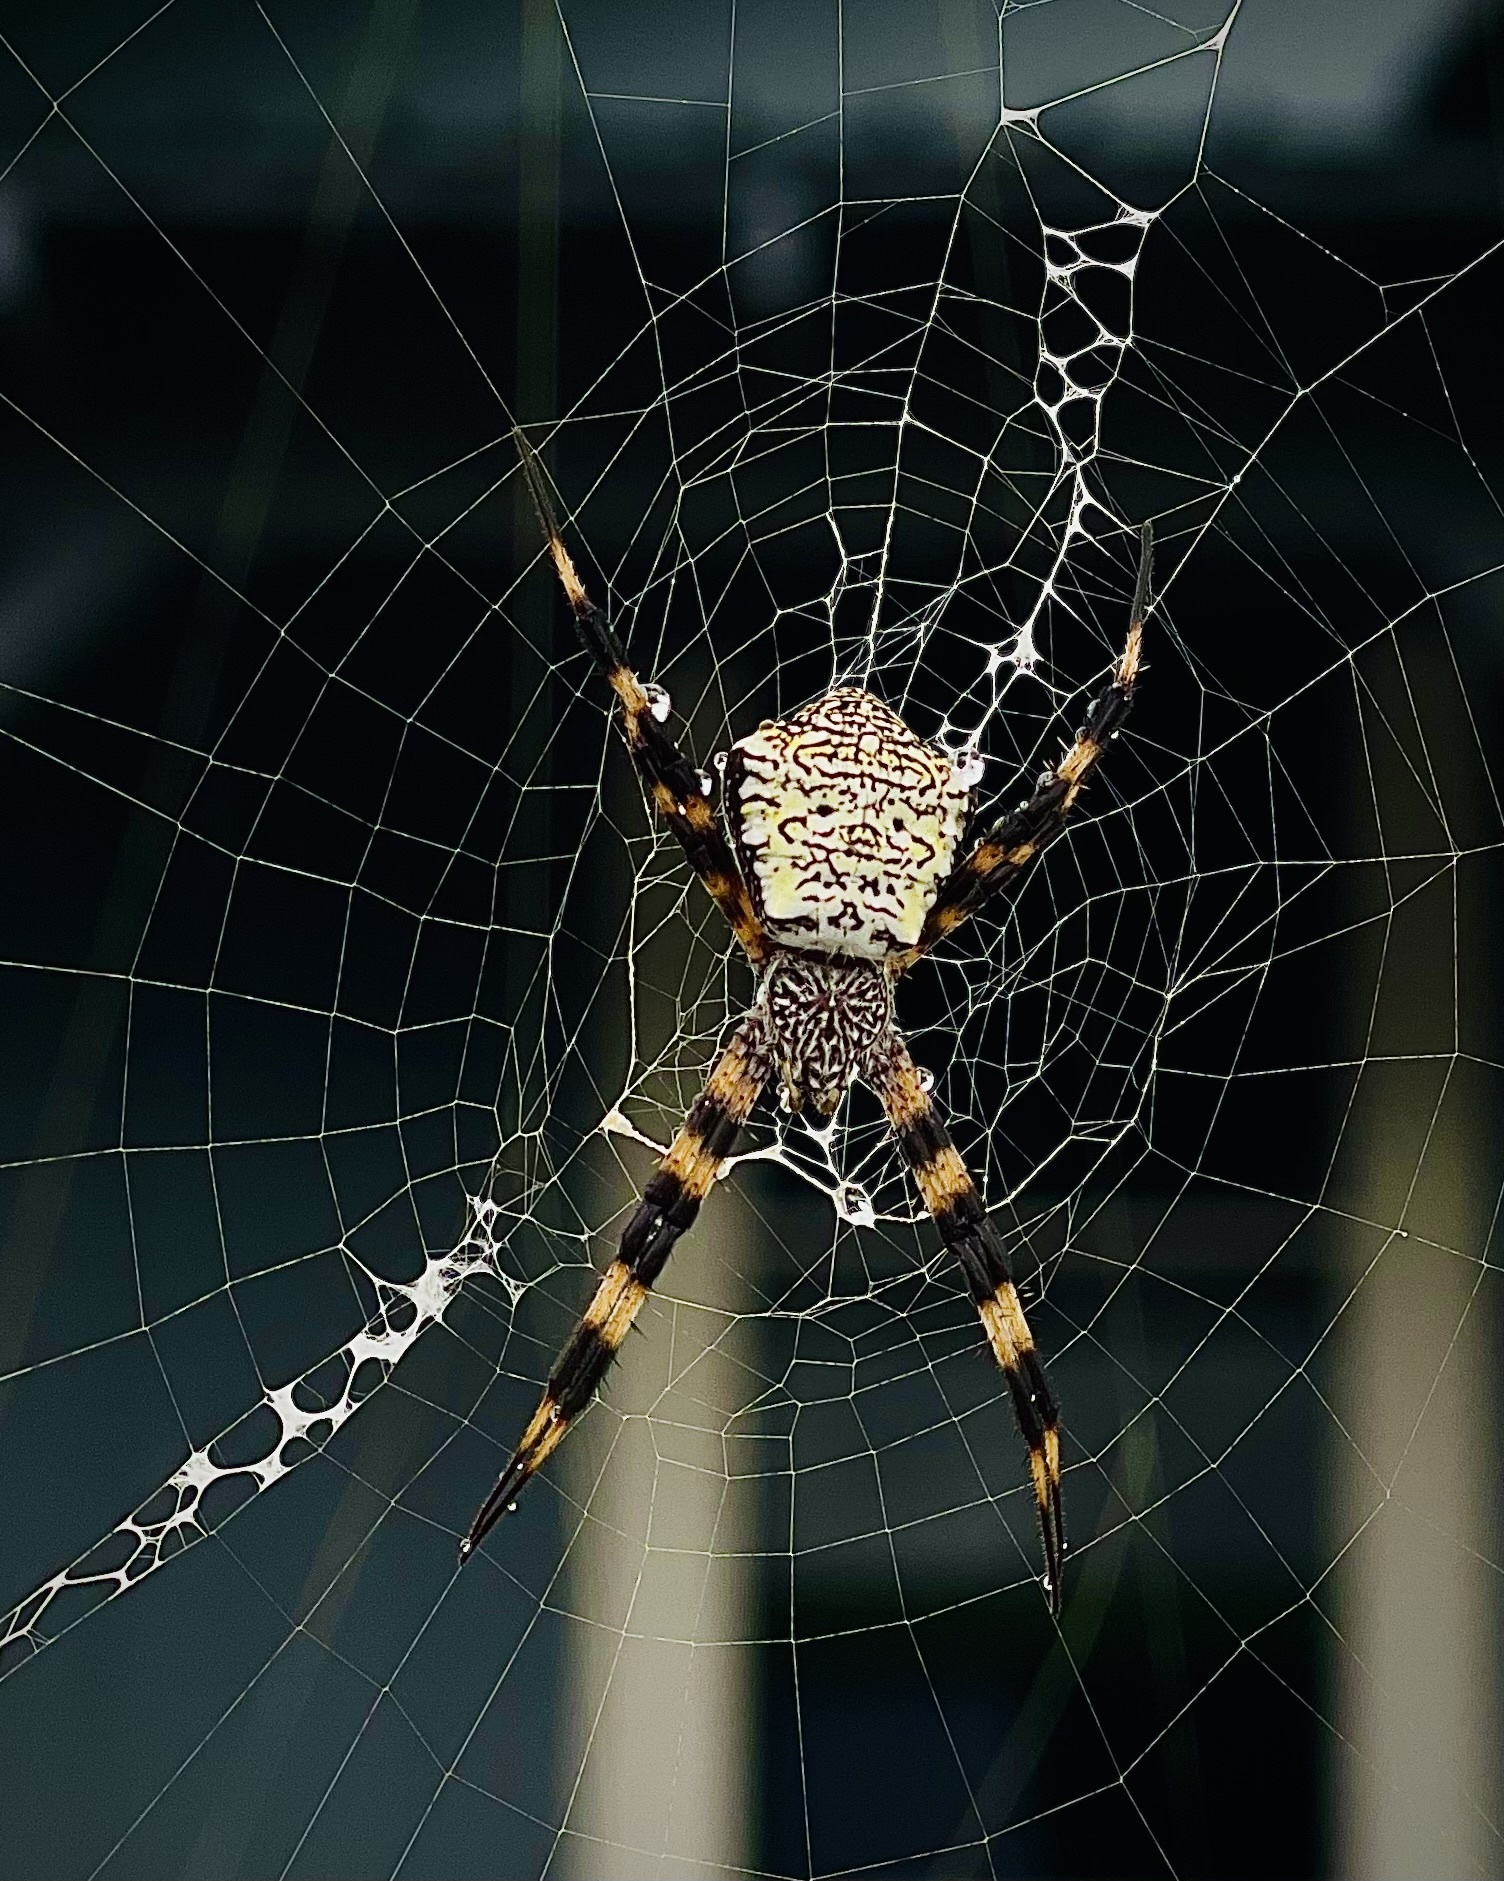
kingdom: Animalia
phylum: Arthropoda
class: Arachnida
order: Araneae
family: Araneidae
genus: Argiope
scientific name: Argiope appensa
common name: Garden spider
